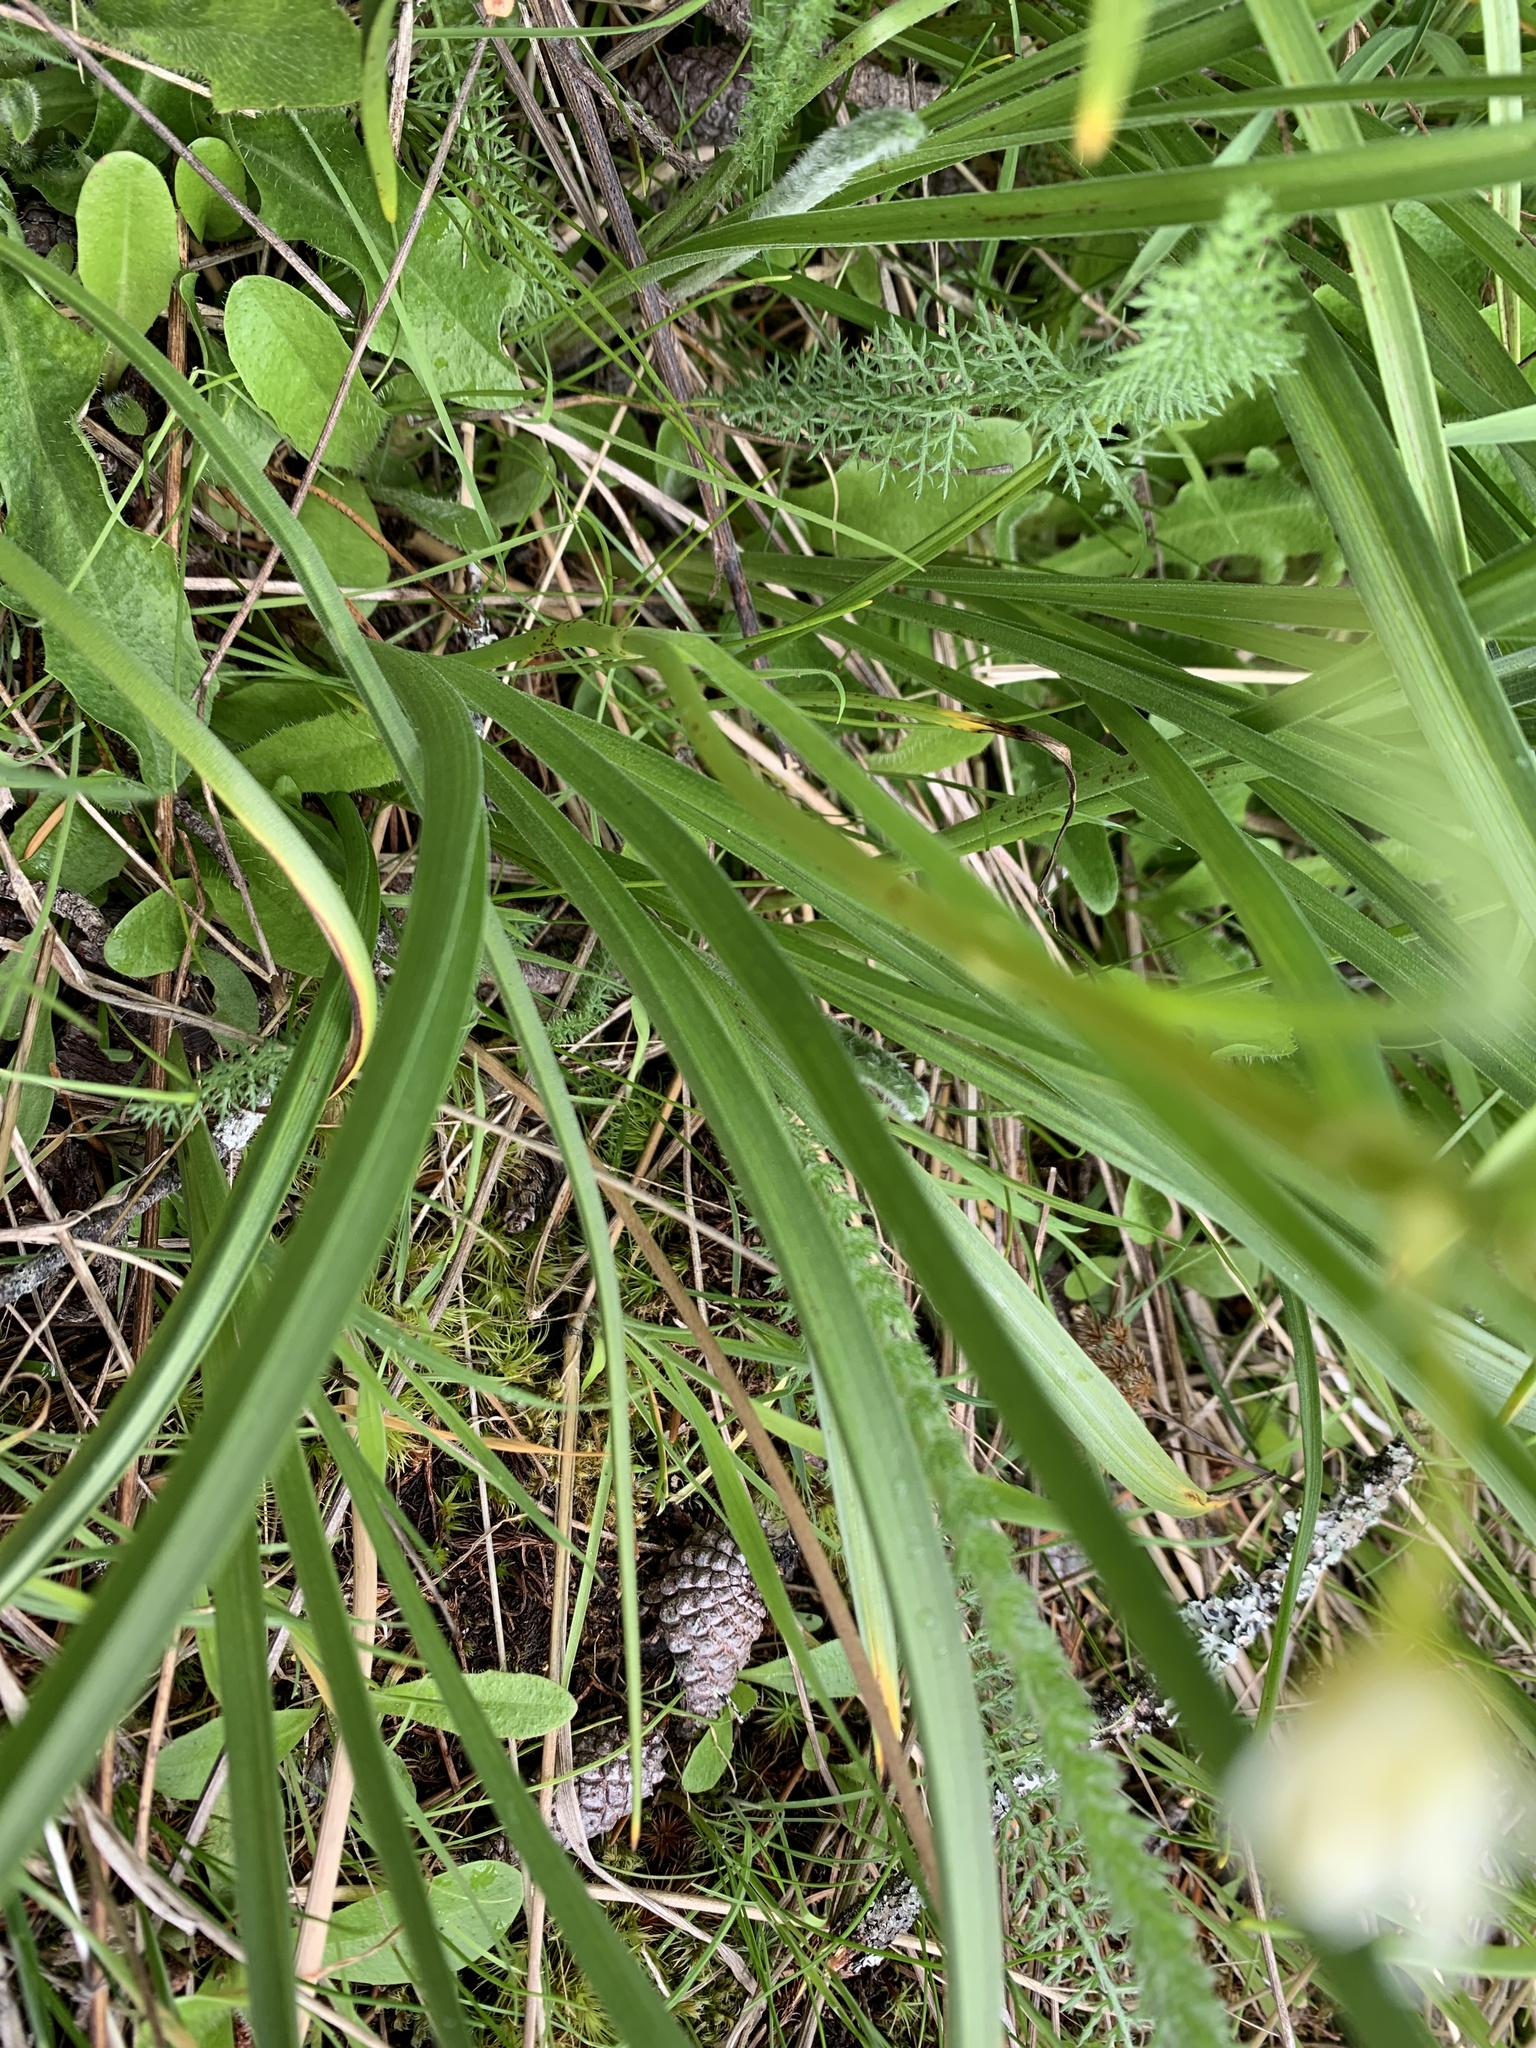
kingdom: Plantae
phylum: Tracheophyta
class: Liliopsida
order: Liliales
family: Melanthiaceae
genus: Toxicoscordion
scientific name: Toxicoscordion venenosum
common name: Meadow death camas
